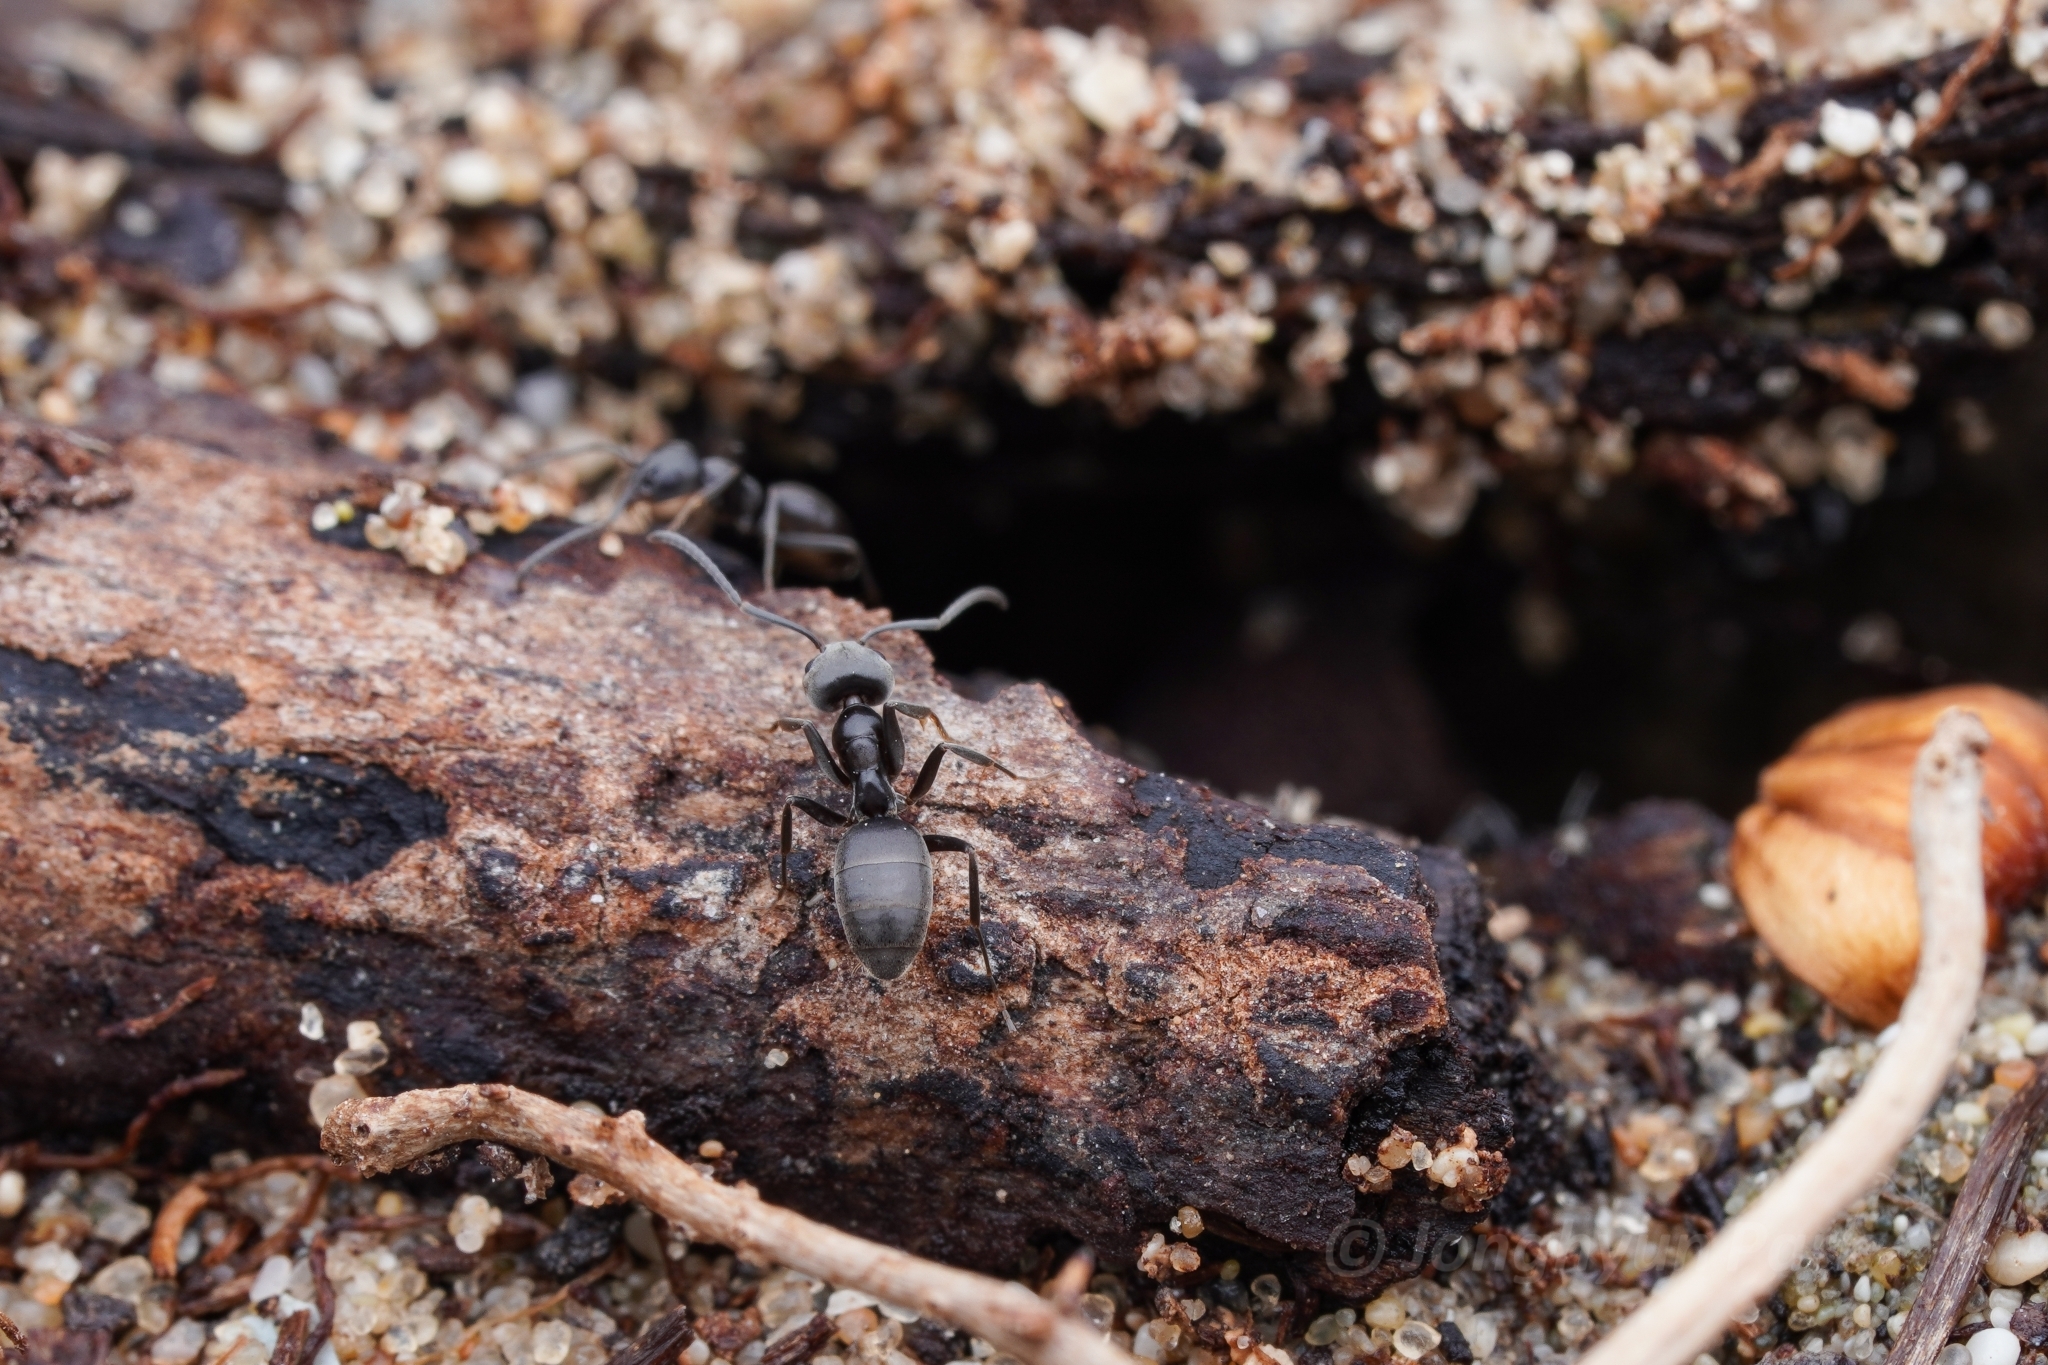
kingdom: Animalia
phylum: Arthropoda
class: Insecta
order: Hymenoptera
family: Formicidae
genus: Tapinoma
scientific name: Tapinoma simrothi
